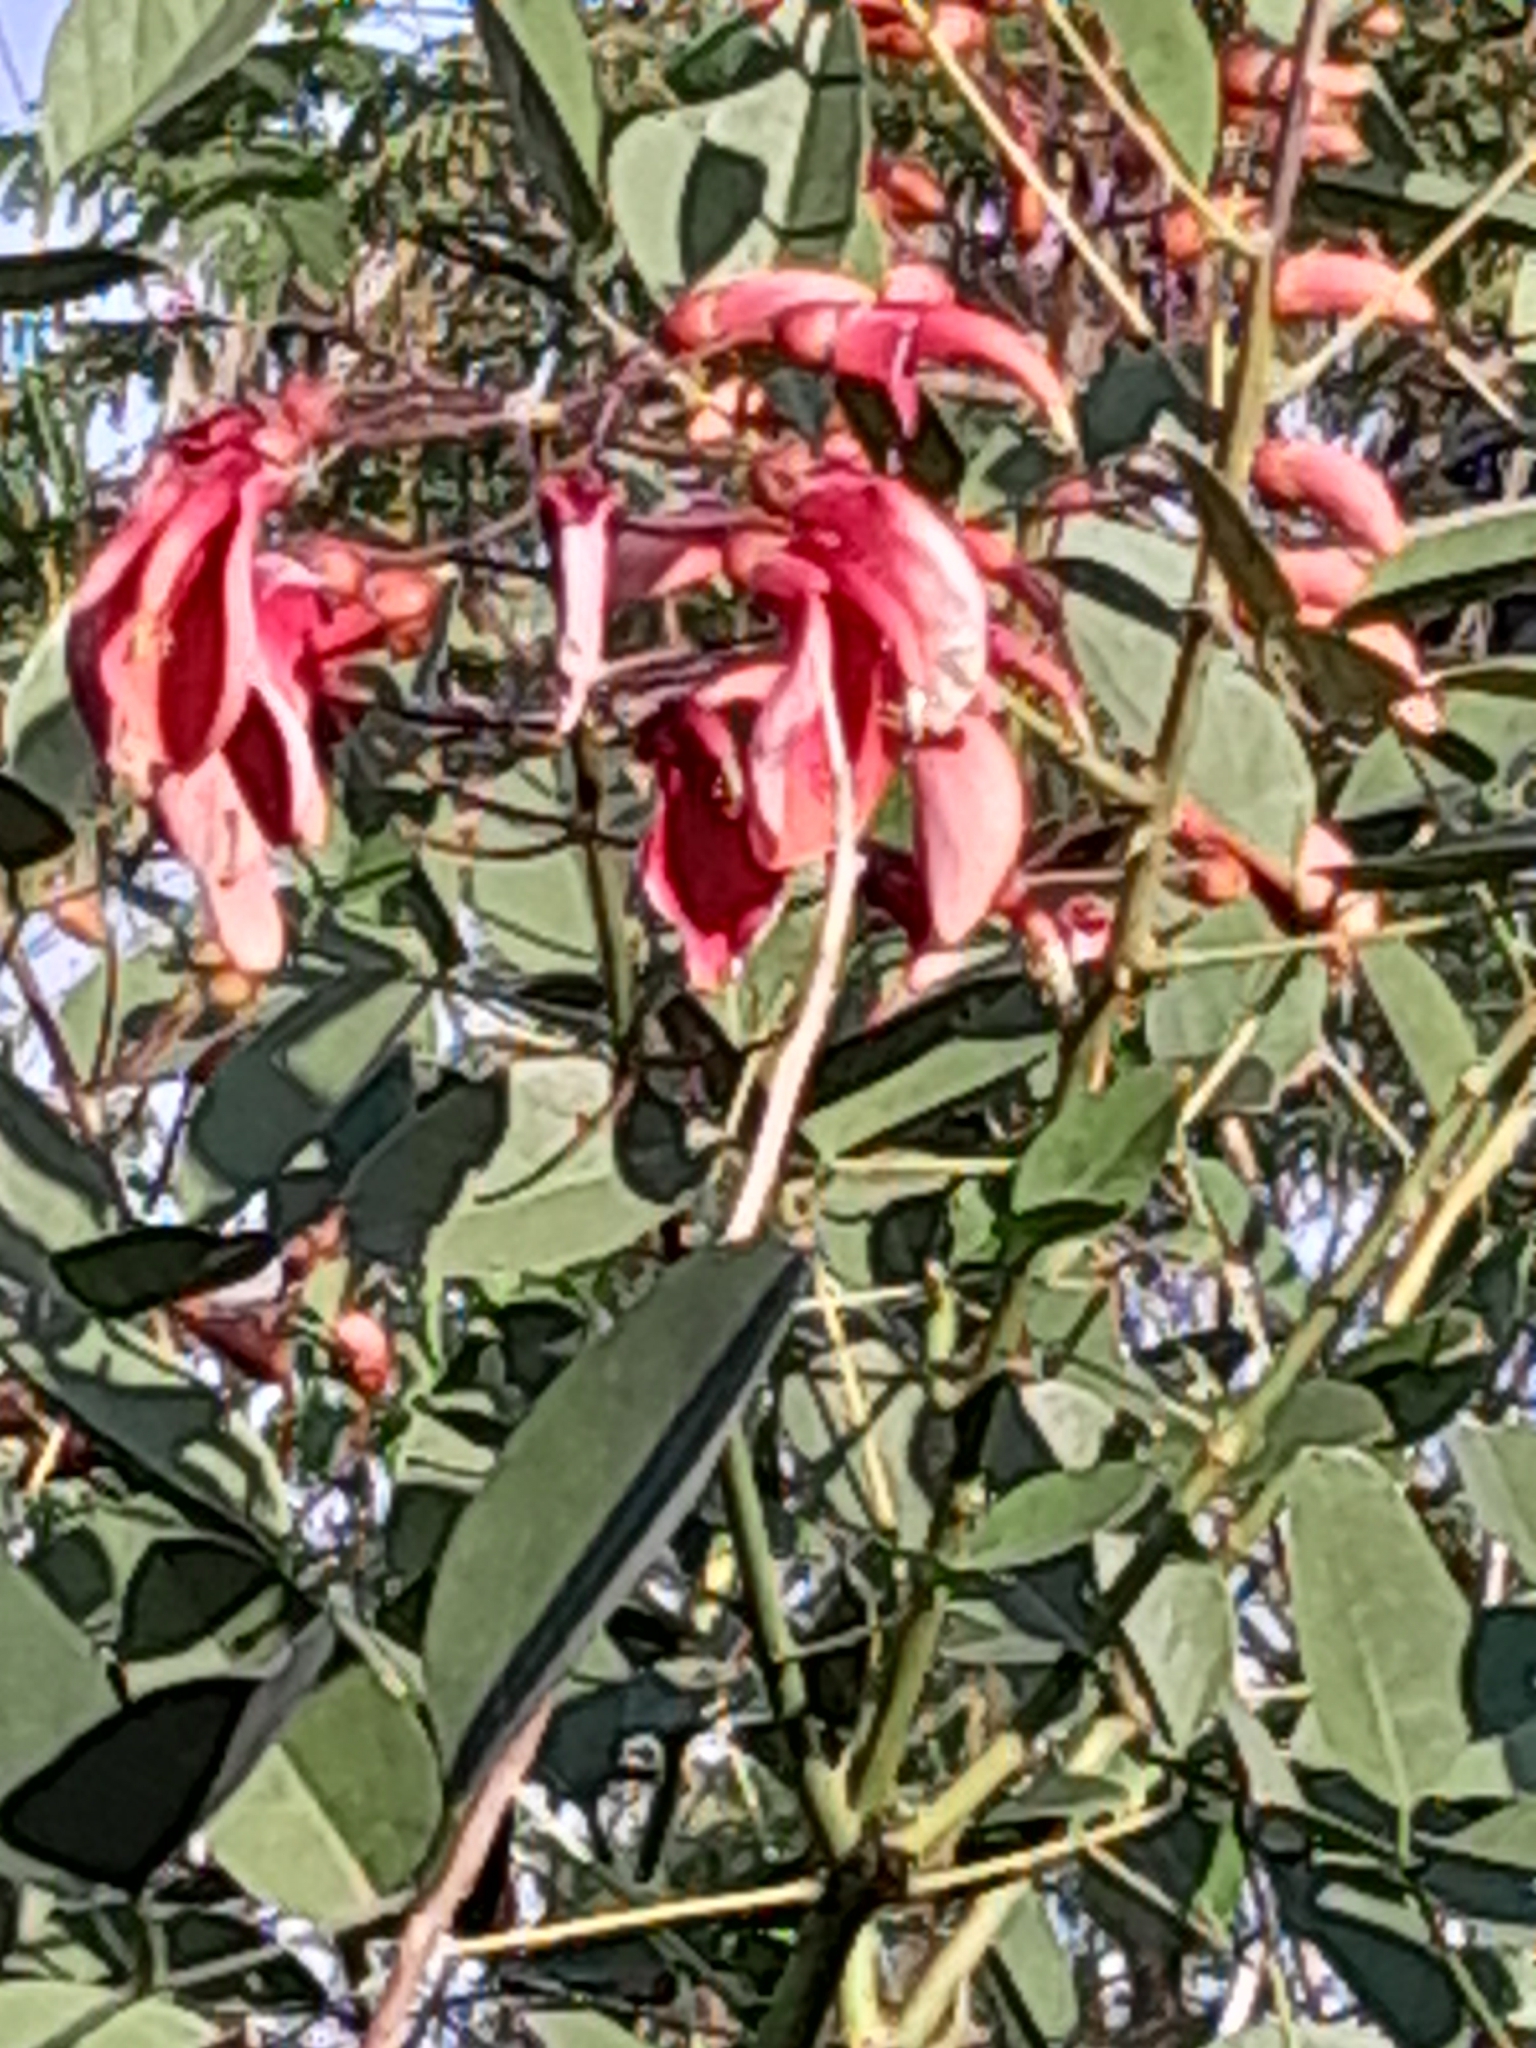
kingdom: Plantae
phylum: Tracheophyta
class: Magnoliopsida
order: Fabales
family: Fabaceae
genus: Erythrina
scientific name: Erythrina crista-galli
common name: Cockspur coral tree
